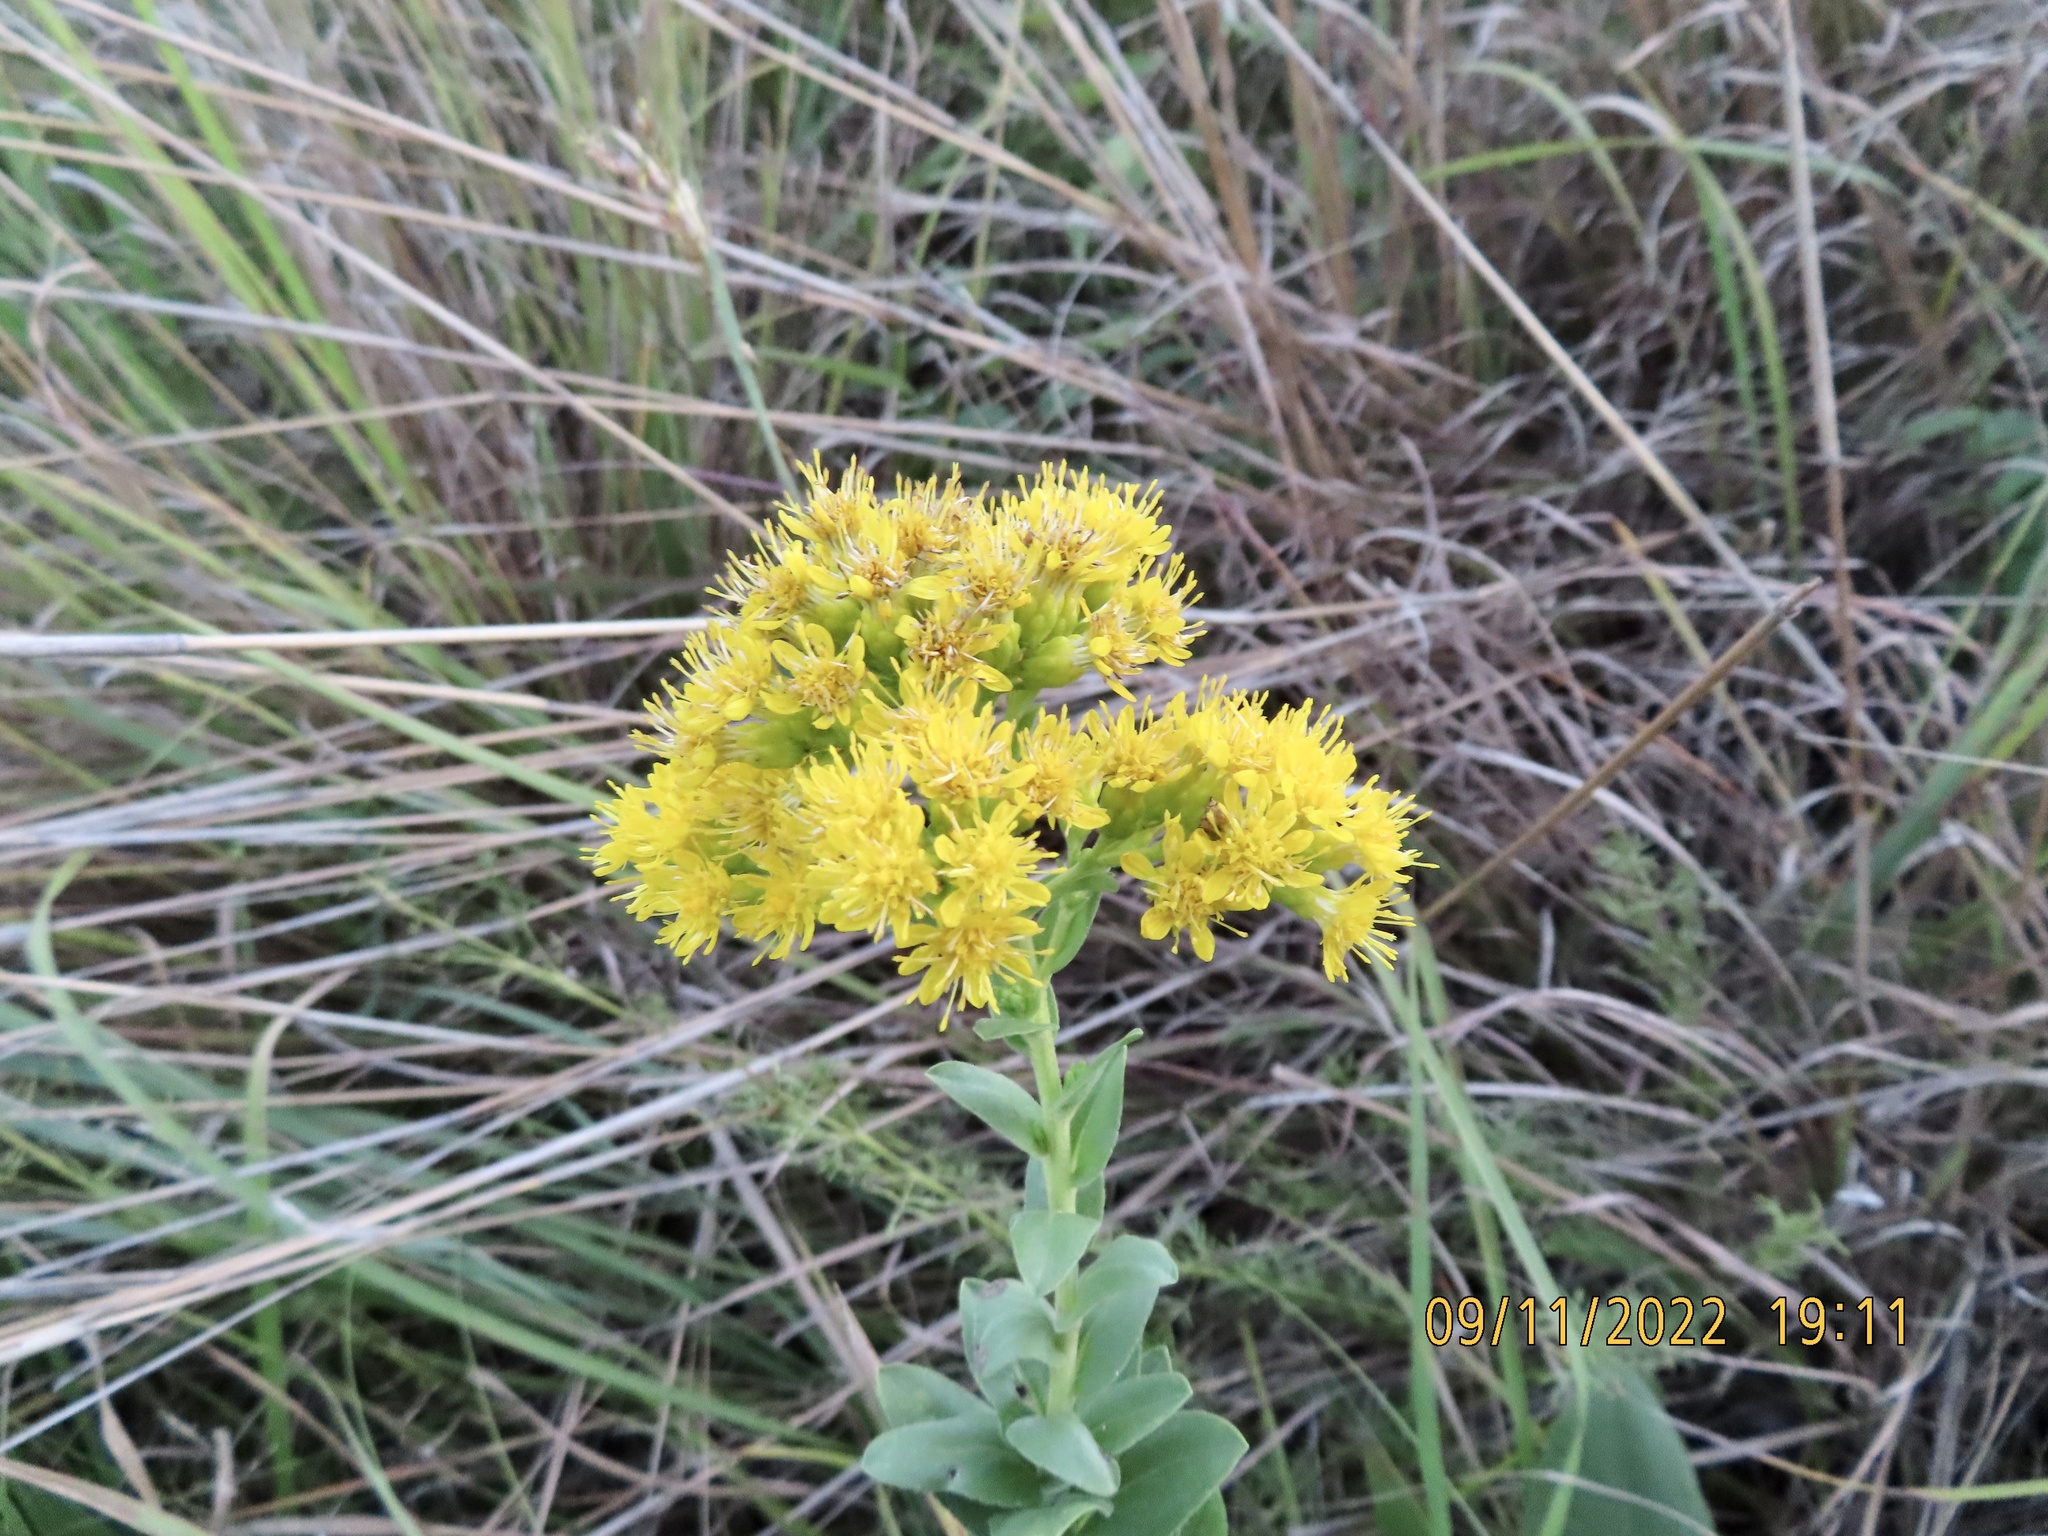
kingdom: Plantae
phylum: Tracheophyta
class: Magnoliopsida
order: Asterales
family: Asteraceae
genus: Solidago
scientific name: Solidago rigida
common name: Rigid goldenrod
